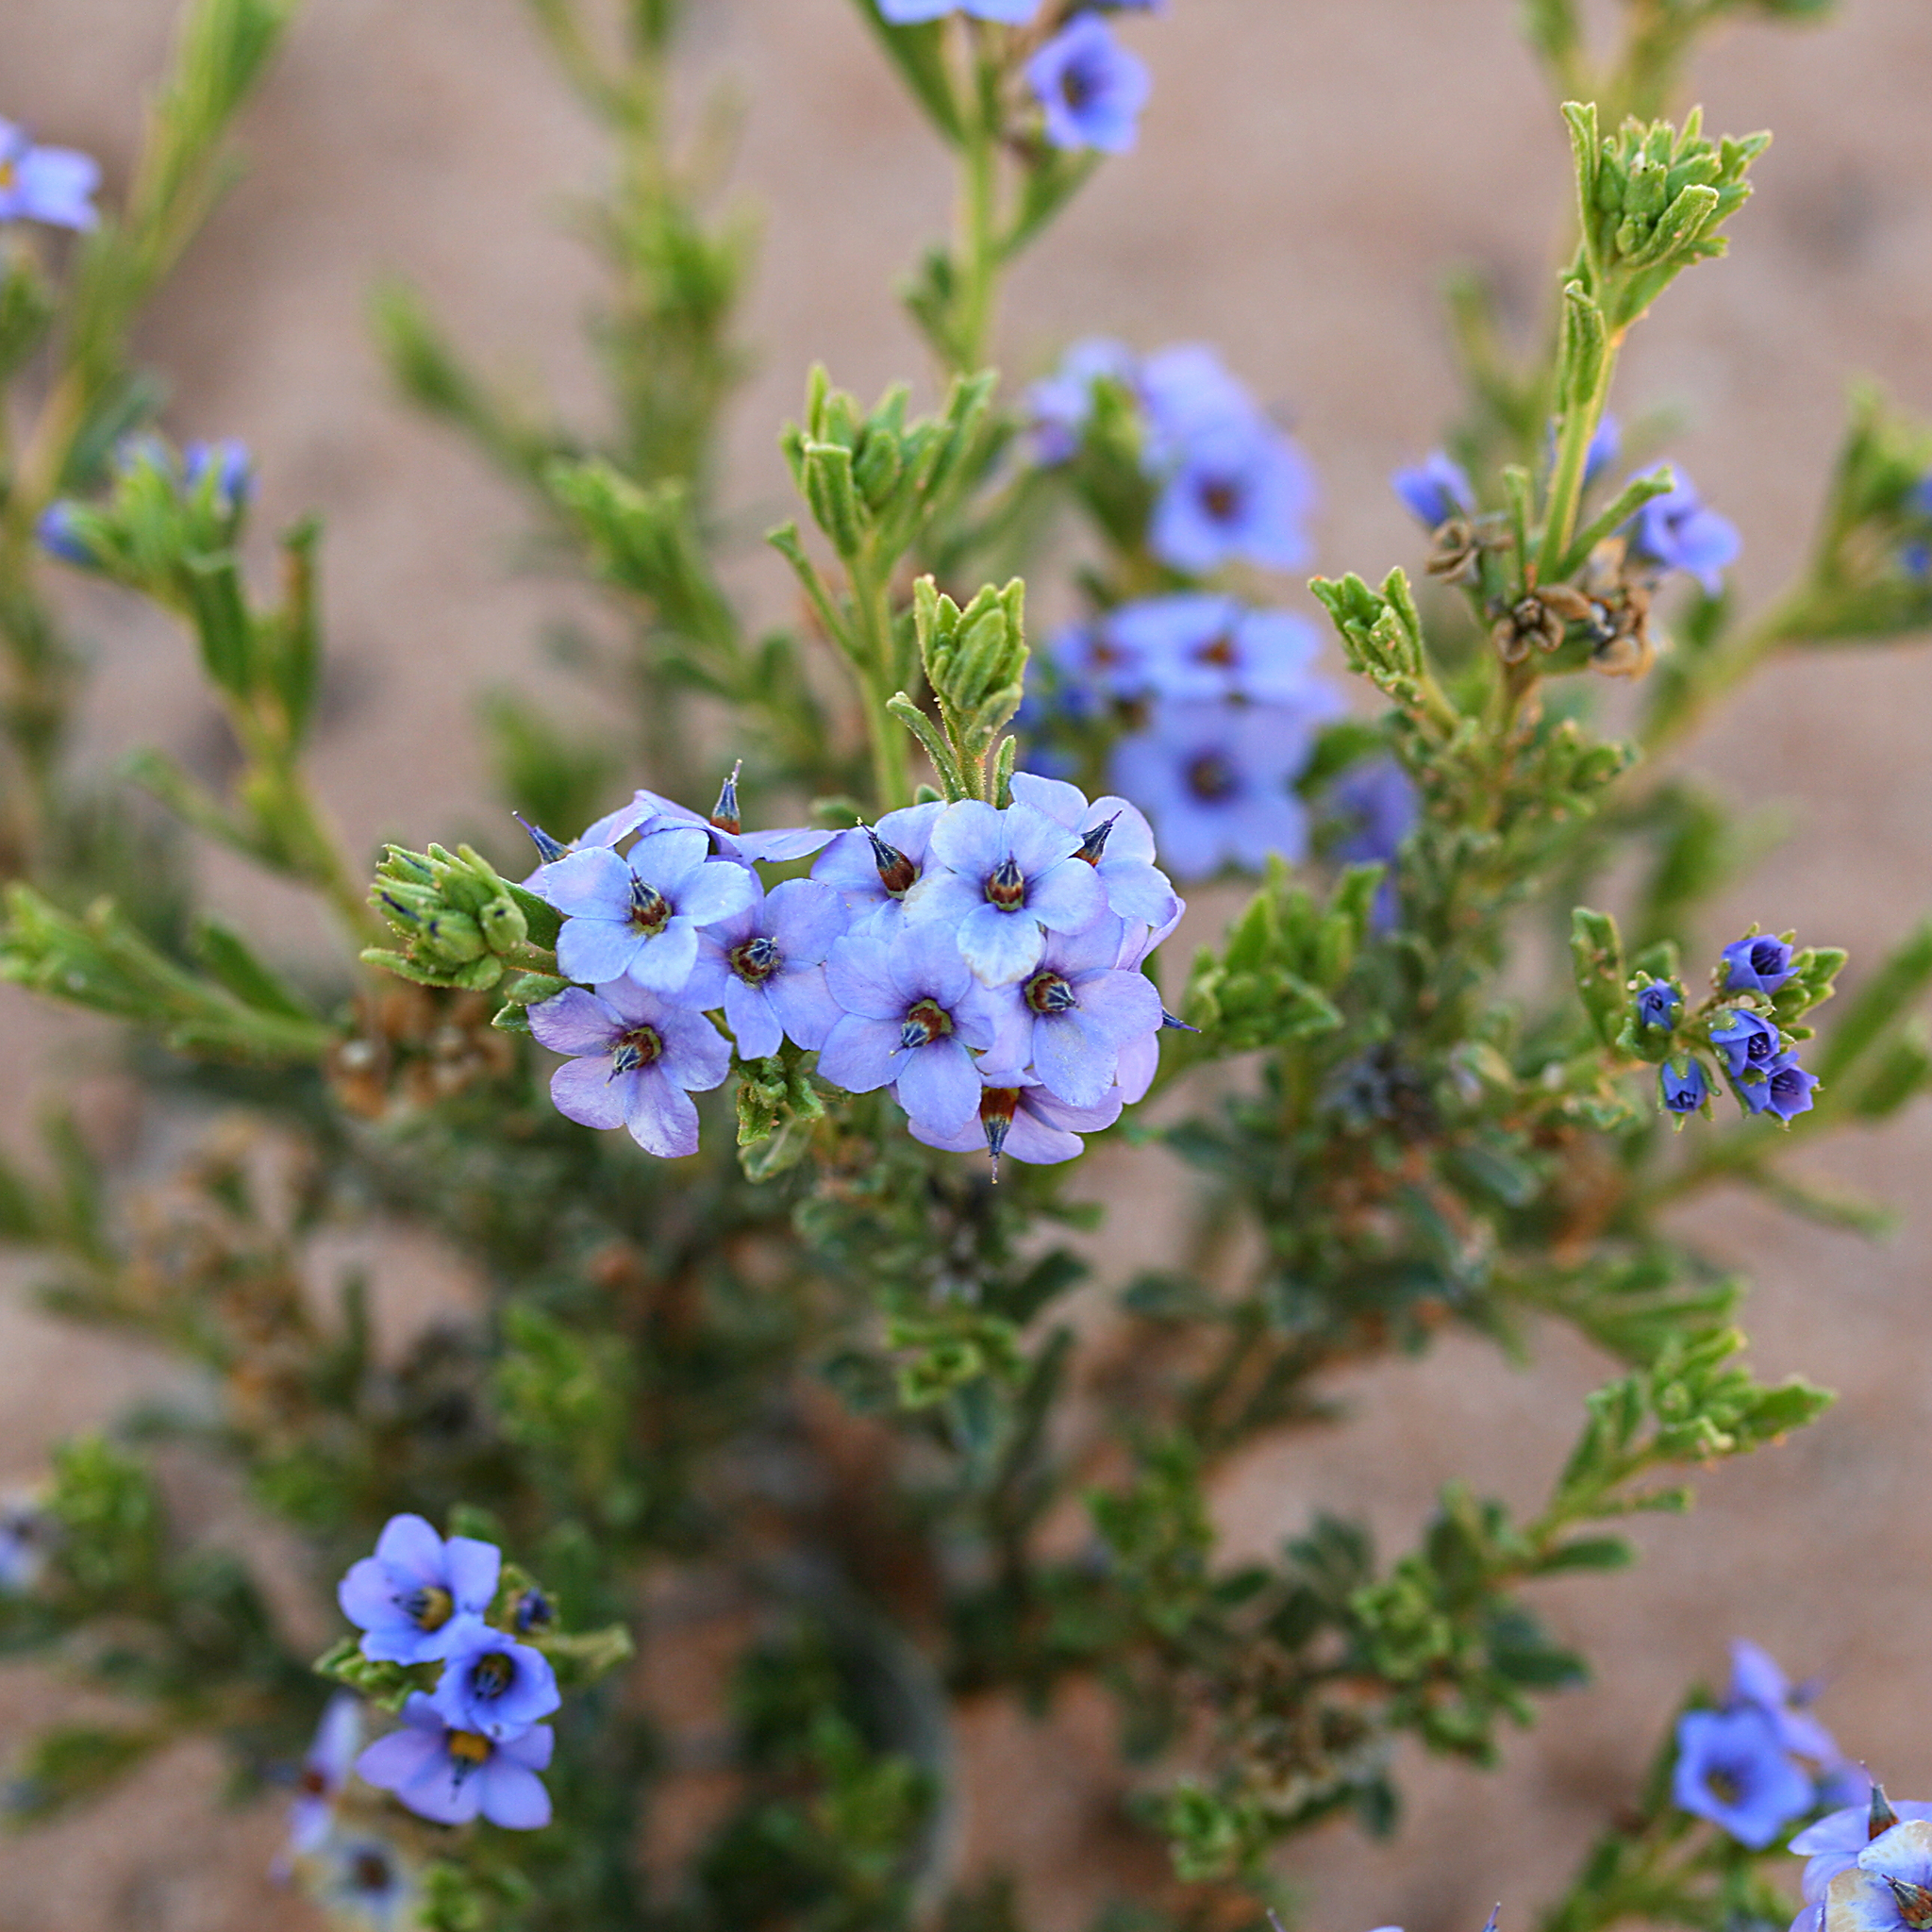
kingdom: Plantae
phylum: Tracheophyta
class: Magnoliopsida
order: Boraginales
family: Ehretiaceae
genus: Halgania
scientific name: Halgania cyanea
